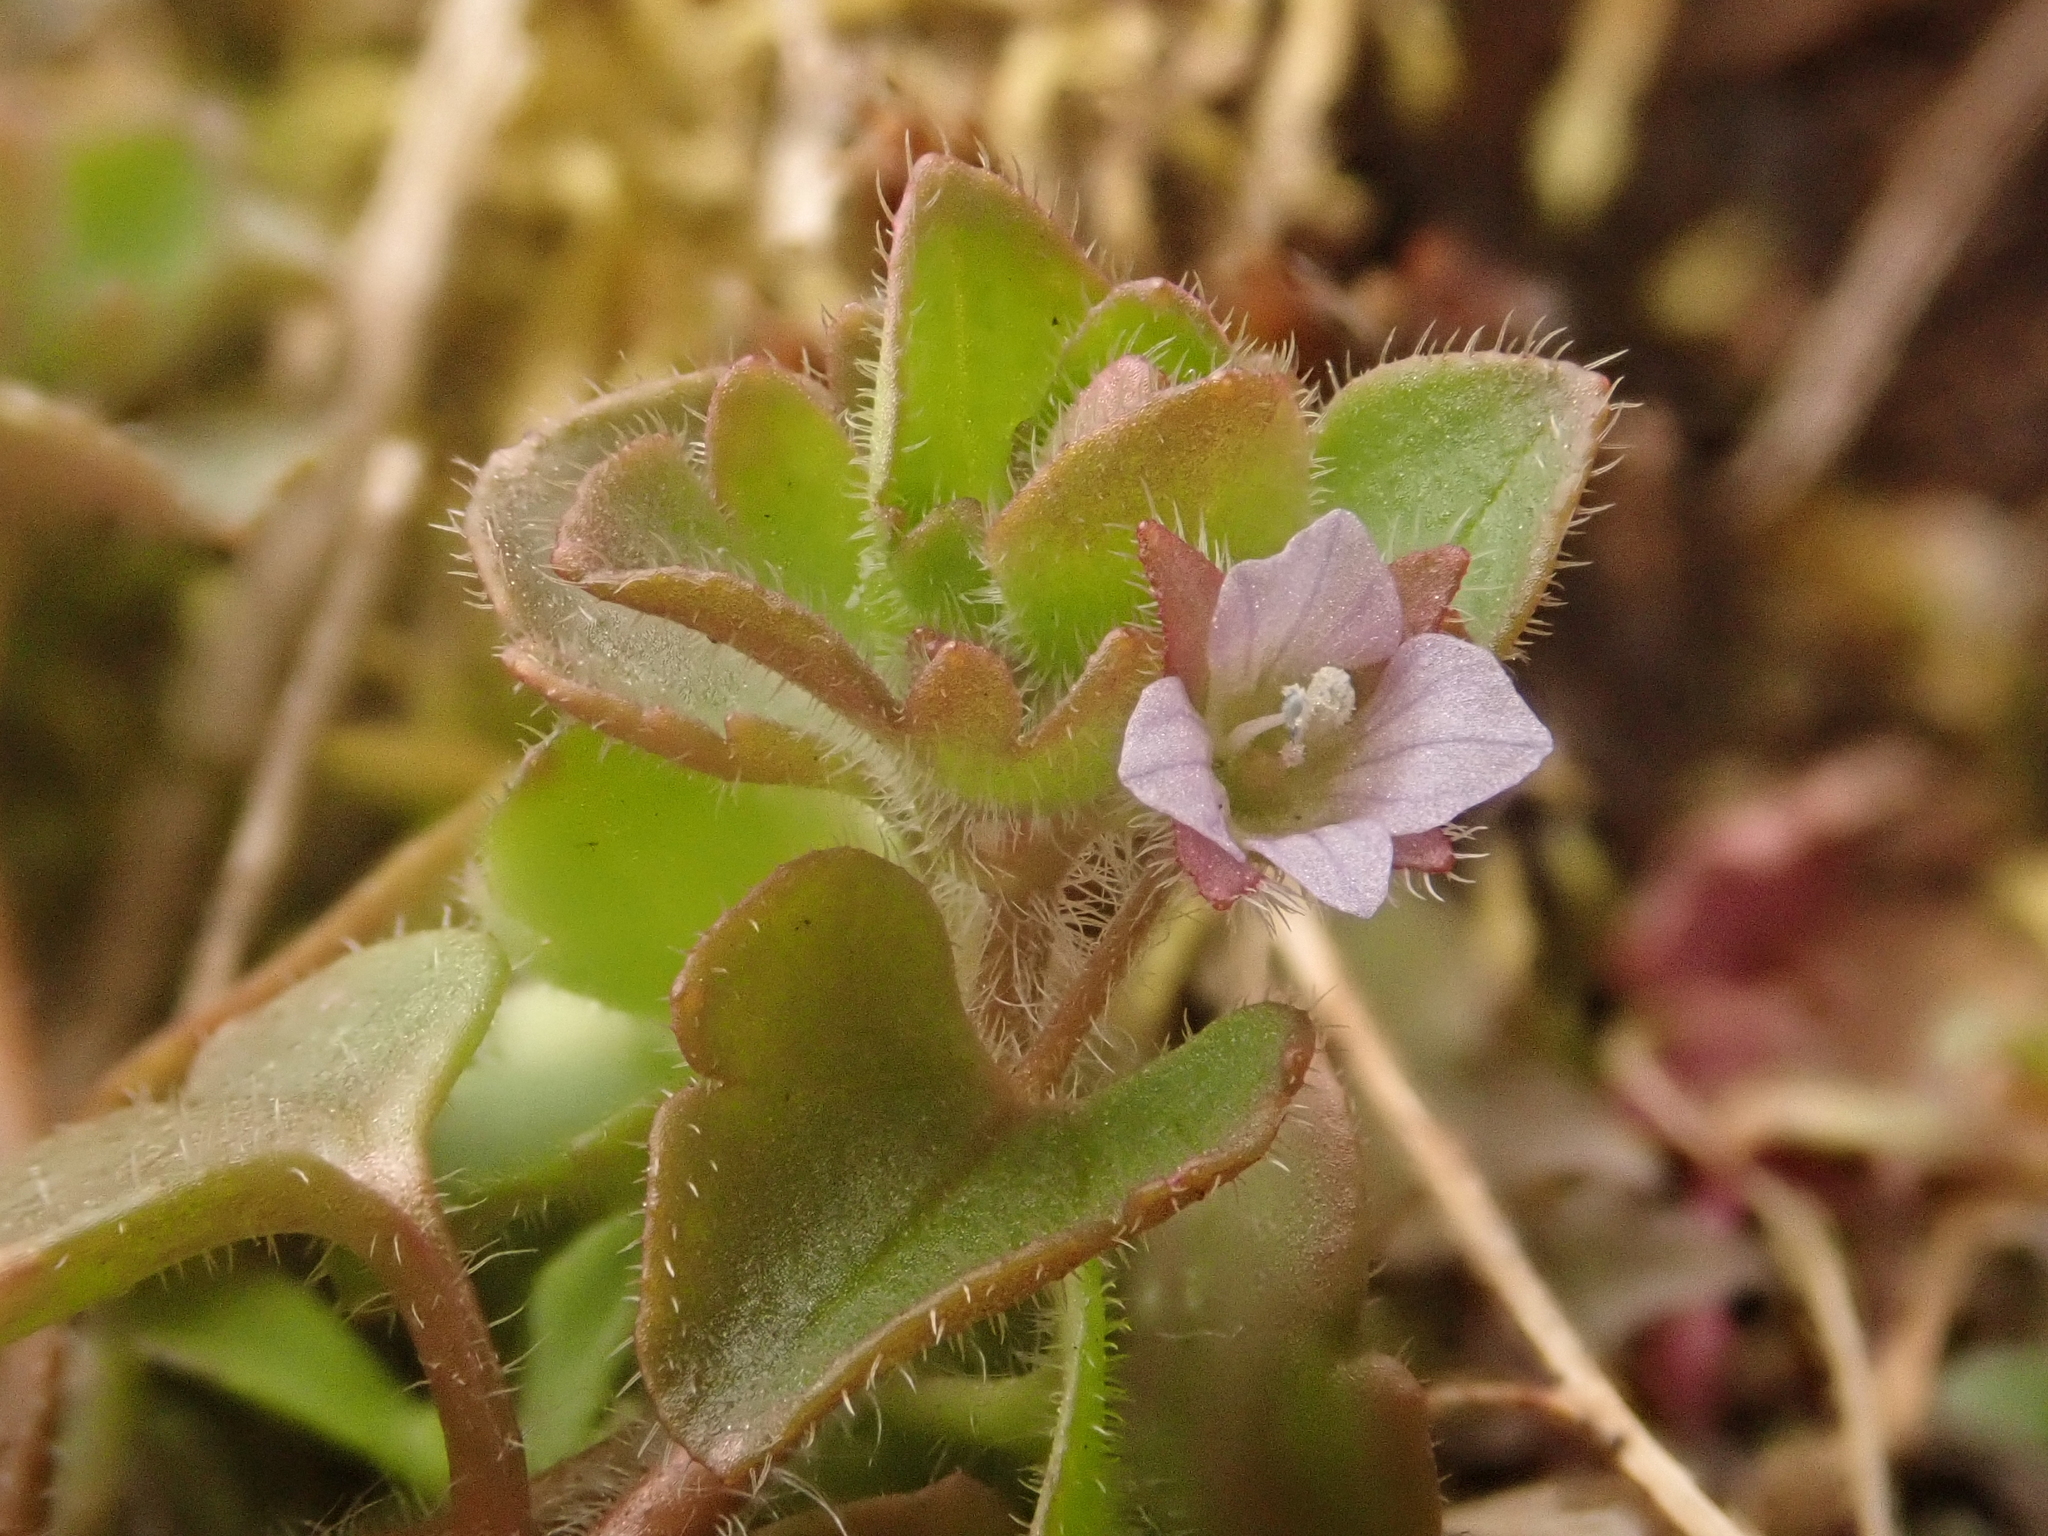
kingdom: Plantae
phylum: Tracheophyta
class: Magnoliopsida
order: Lamiales
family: Plantaginaceae
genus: Veronica
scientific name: Veronica sublobata
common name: False ivy-leaved speedwell
